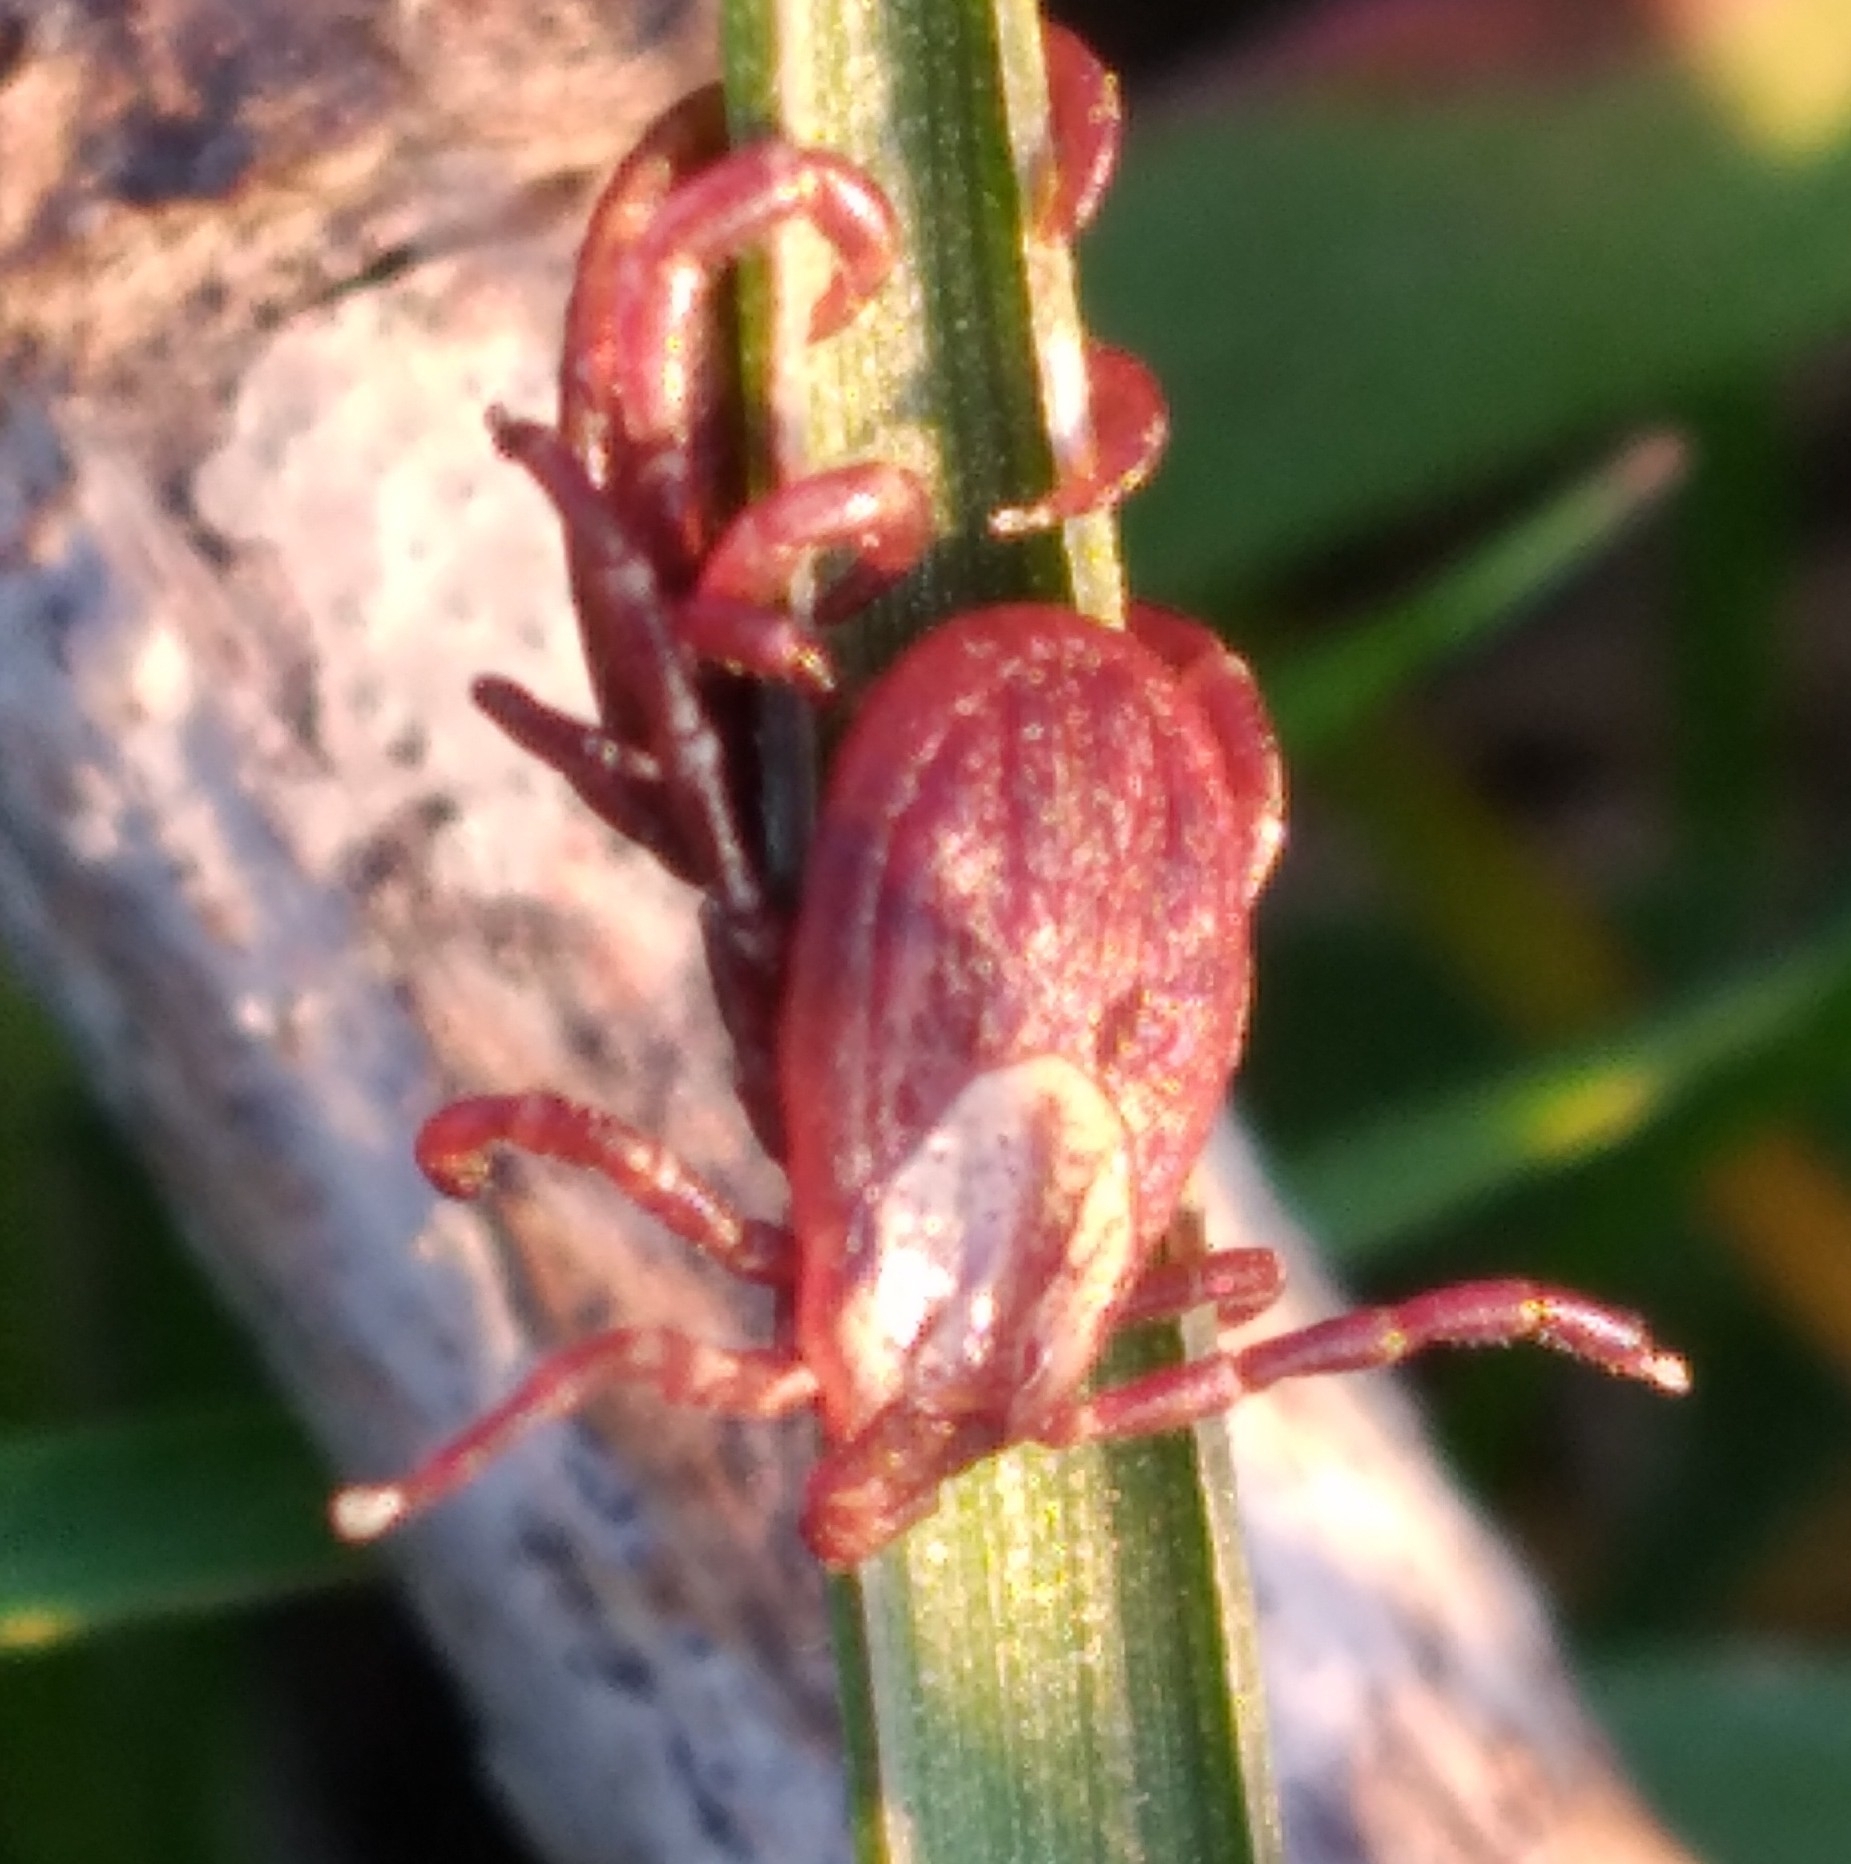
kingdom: Animalia
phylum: Arthropoda
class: Arachnida
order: Ixodida
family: Ixodidae
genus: Dermacentor
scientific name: Dermacentor variabilis
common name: American dog tick
